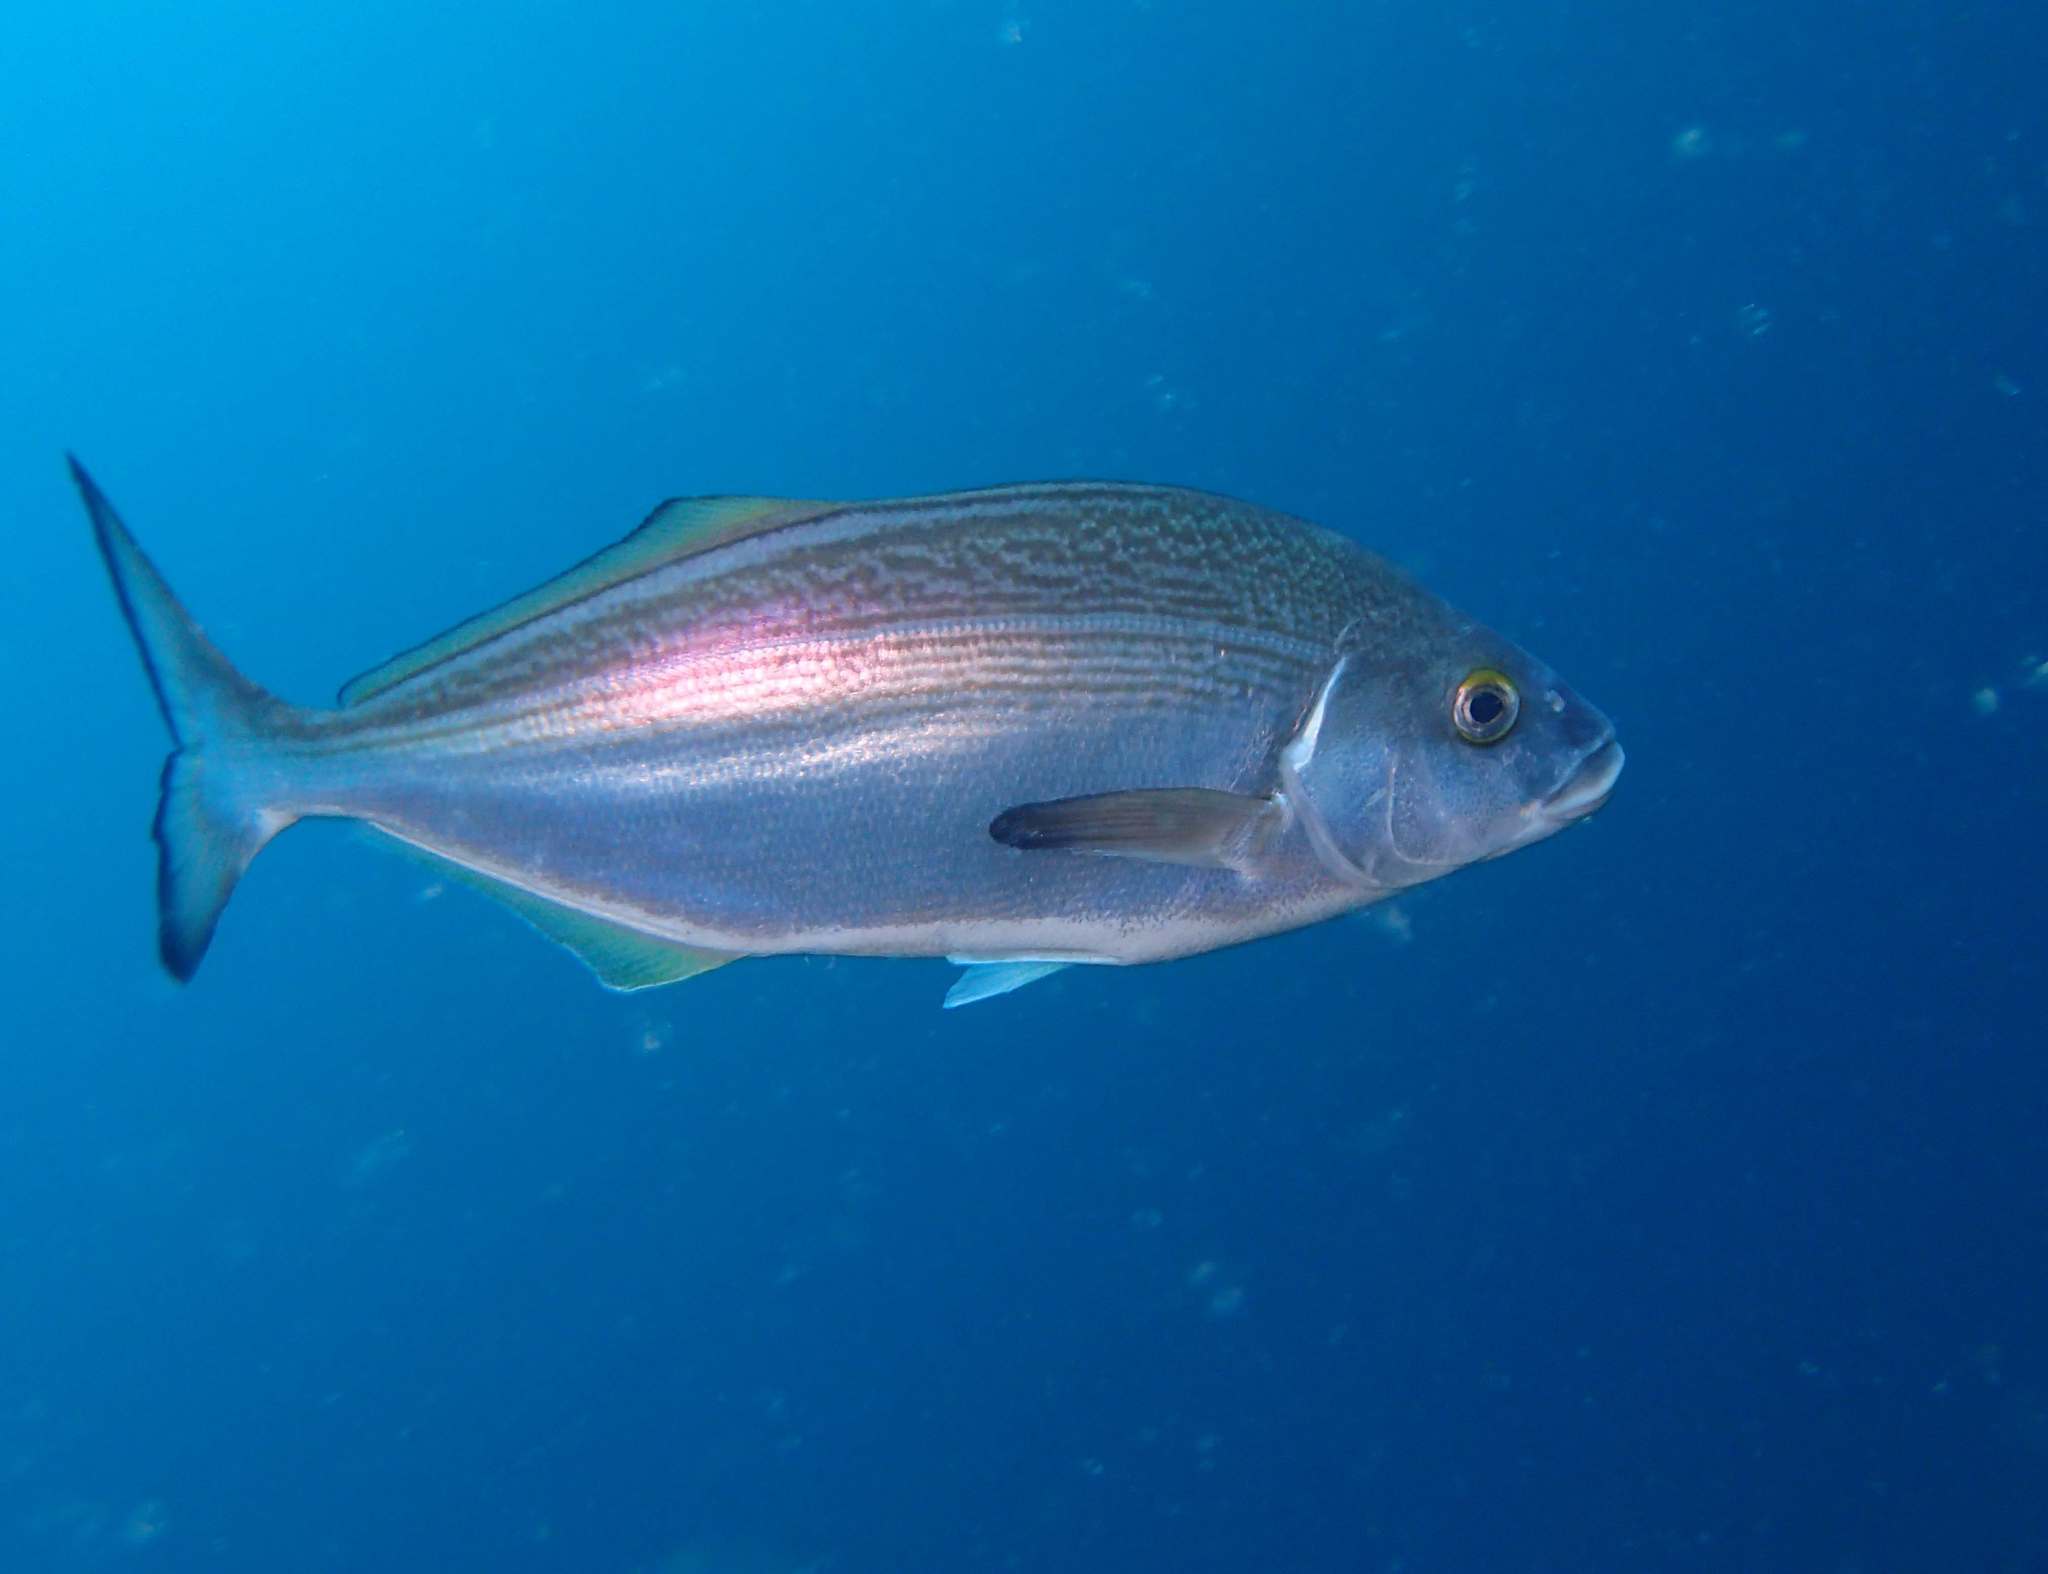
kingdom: Animalia
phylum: Chordata
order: Perciformes
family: Latridae
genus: Latridopsis
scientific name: Latridopsis forsteri
